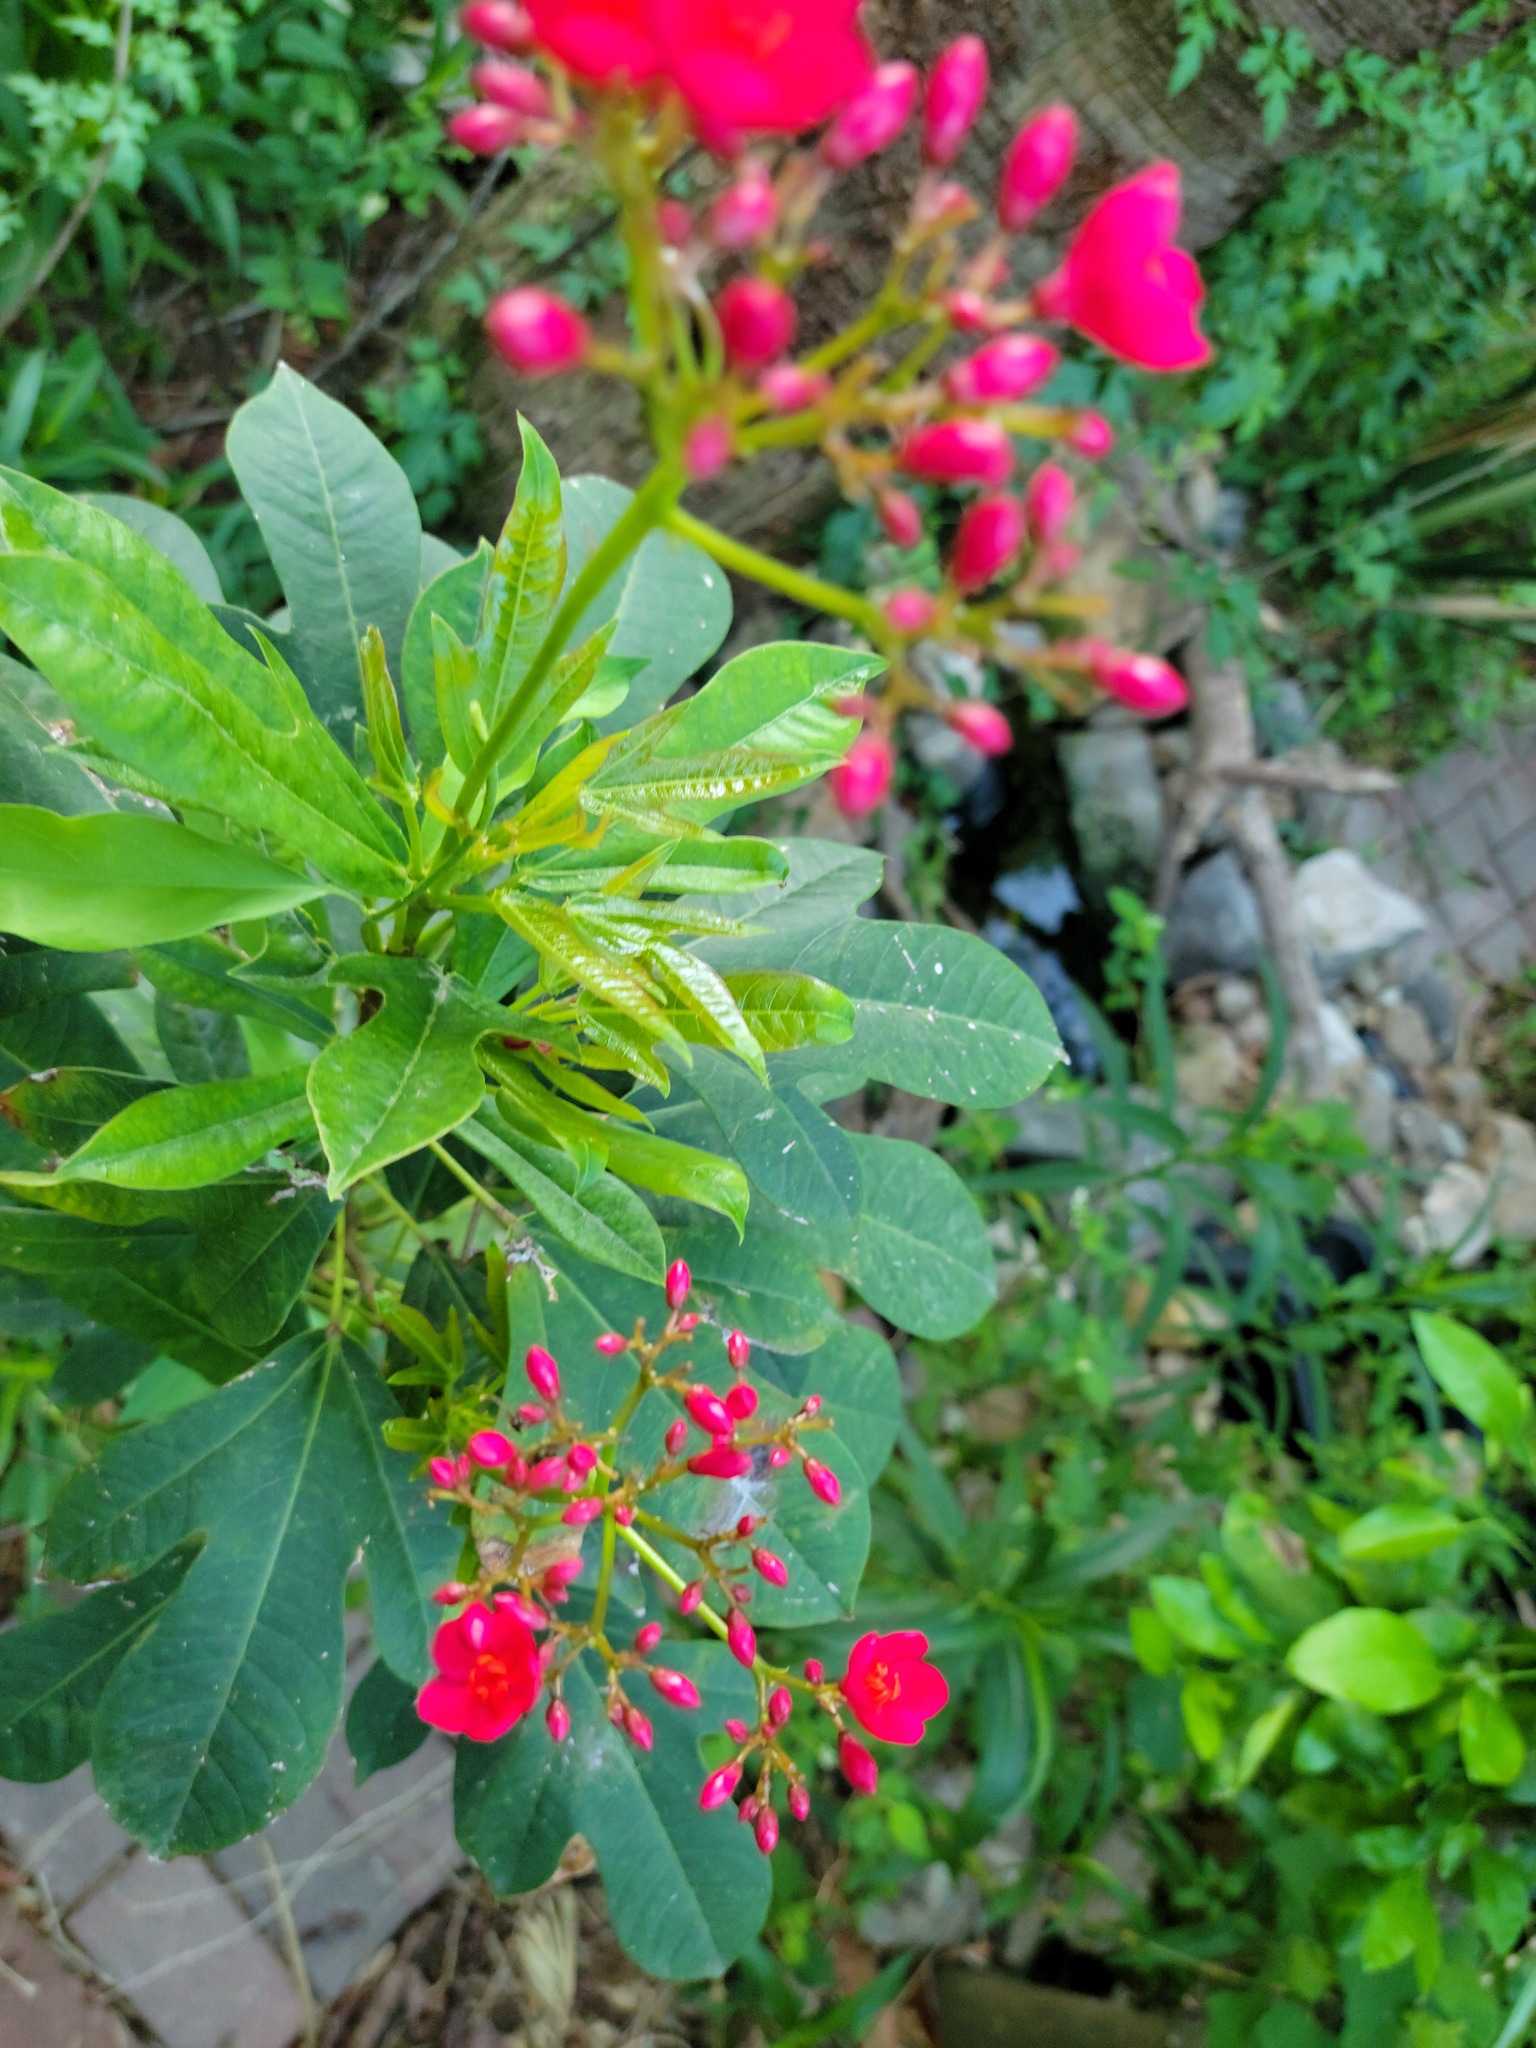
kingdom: Plantae
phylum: Tracheophyta
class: Magnoliopsida
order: Malpighiales
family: Euphorbiaceae
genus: Jatropha
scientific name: Jatropha integerrima
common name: Peregrina
